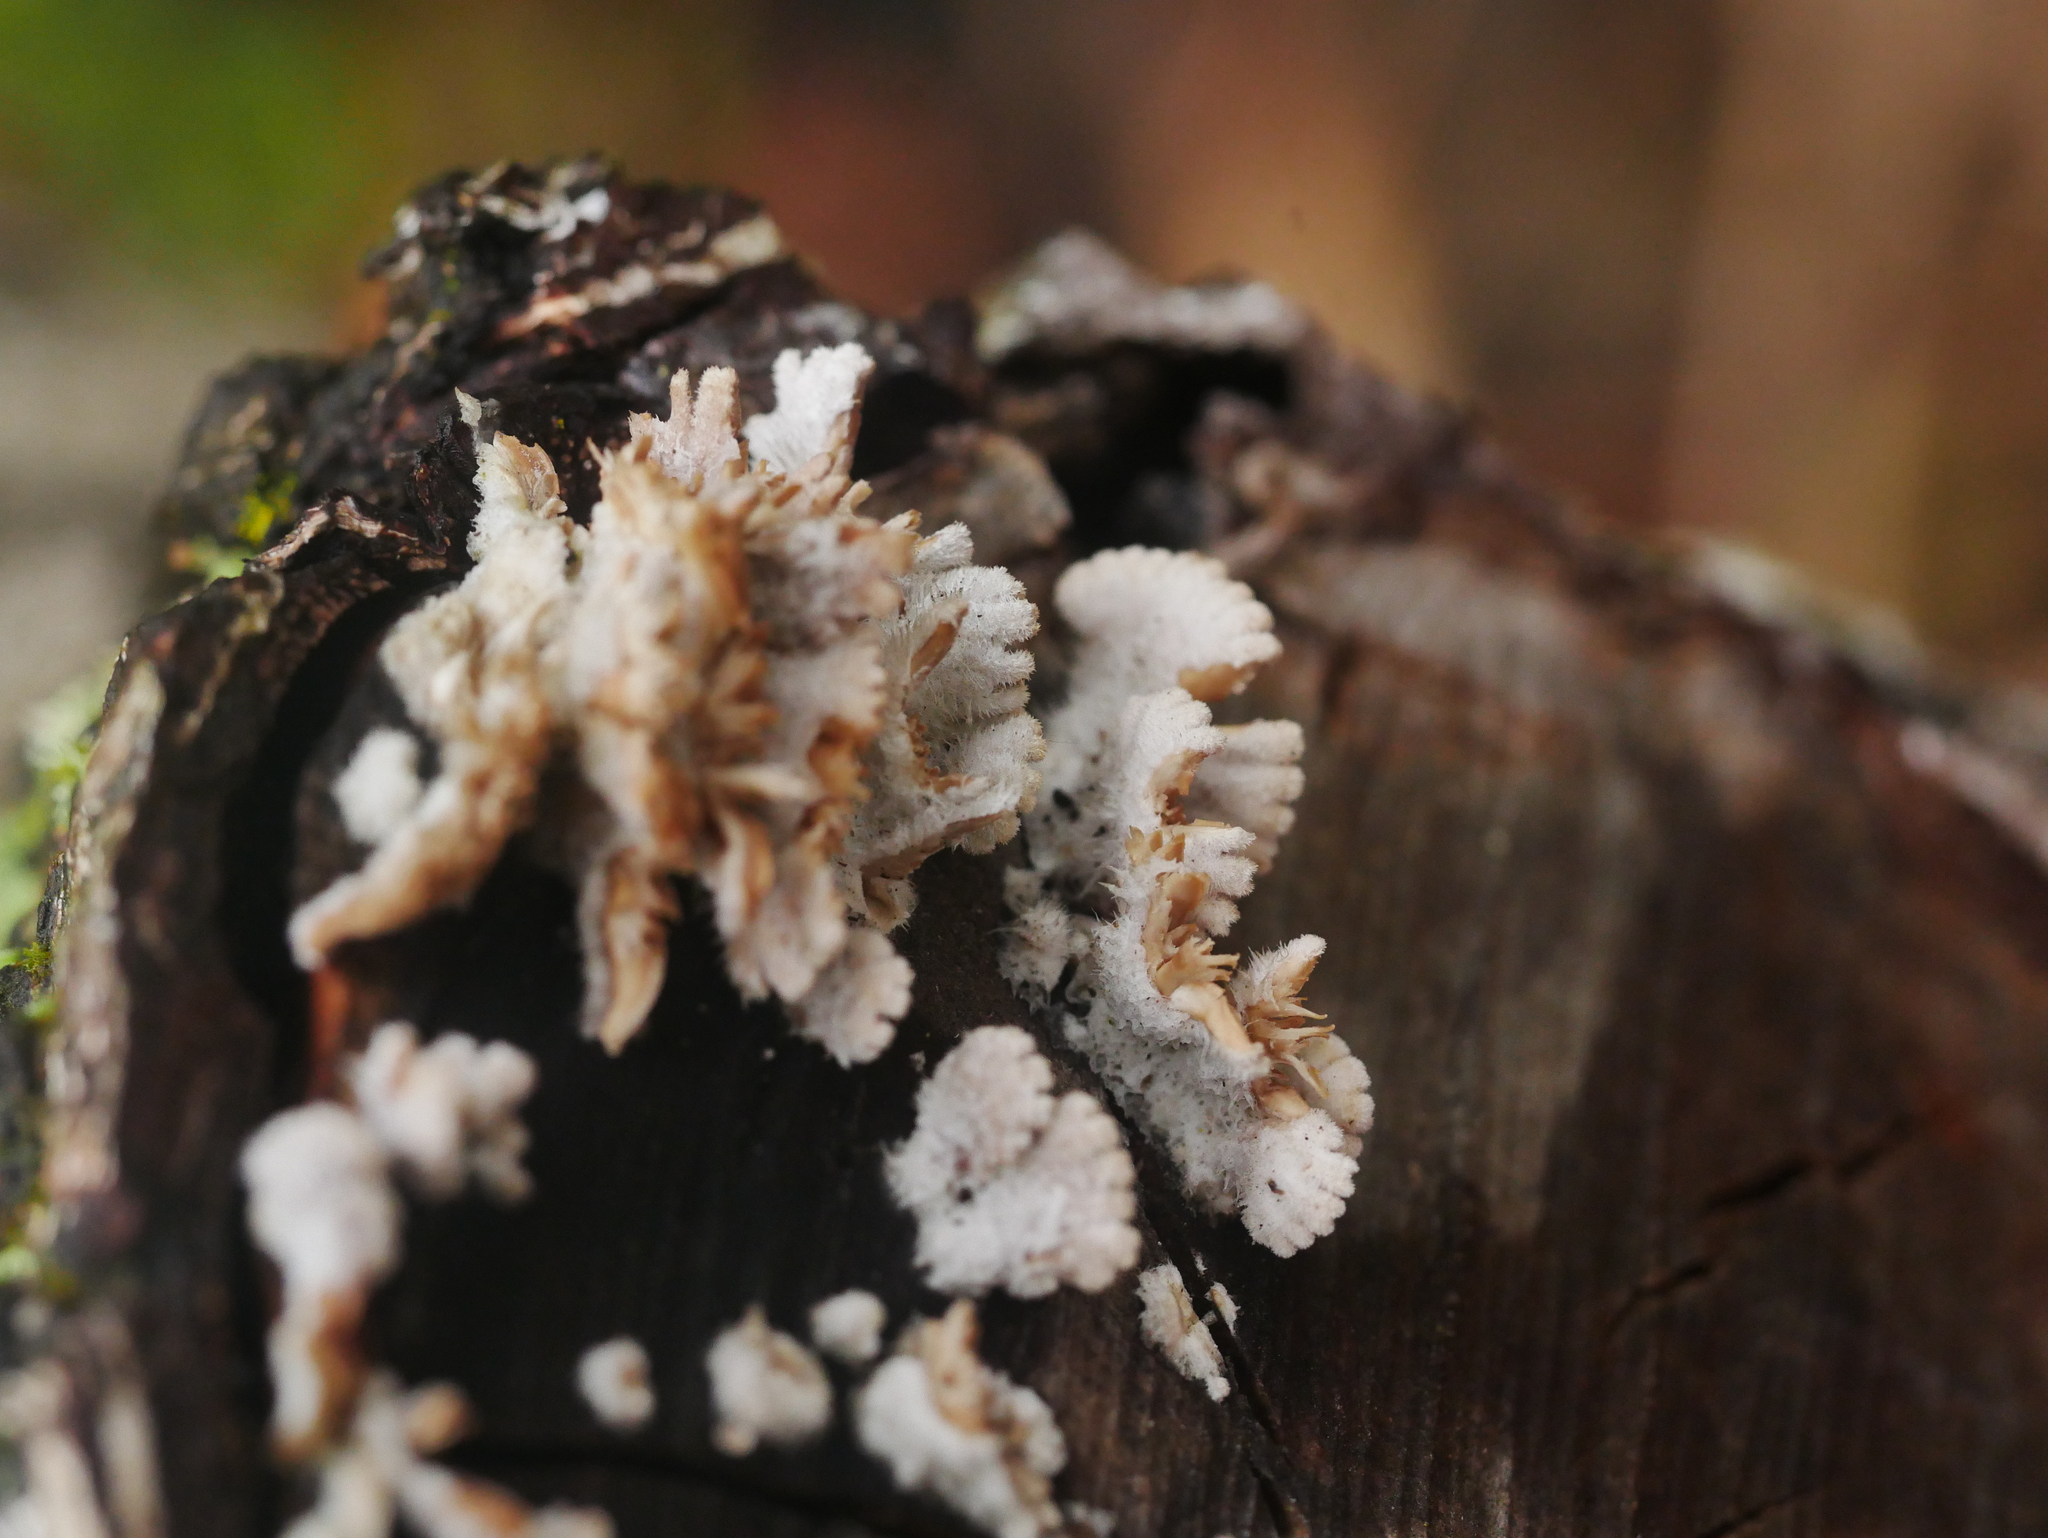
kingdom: Fungi
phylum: Basidiomycota
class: Agaricomycetes
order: Agaricales
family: Schizophyllaceae
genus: Schizophyllum
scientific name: Schizophyllum commune
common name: Common porecrust
